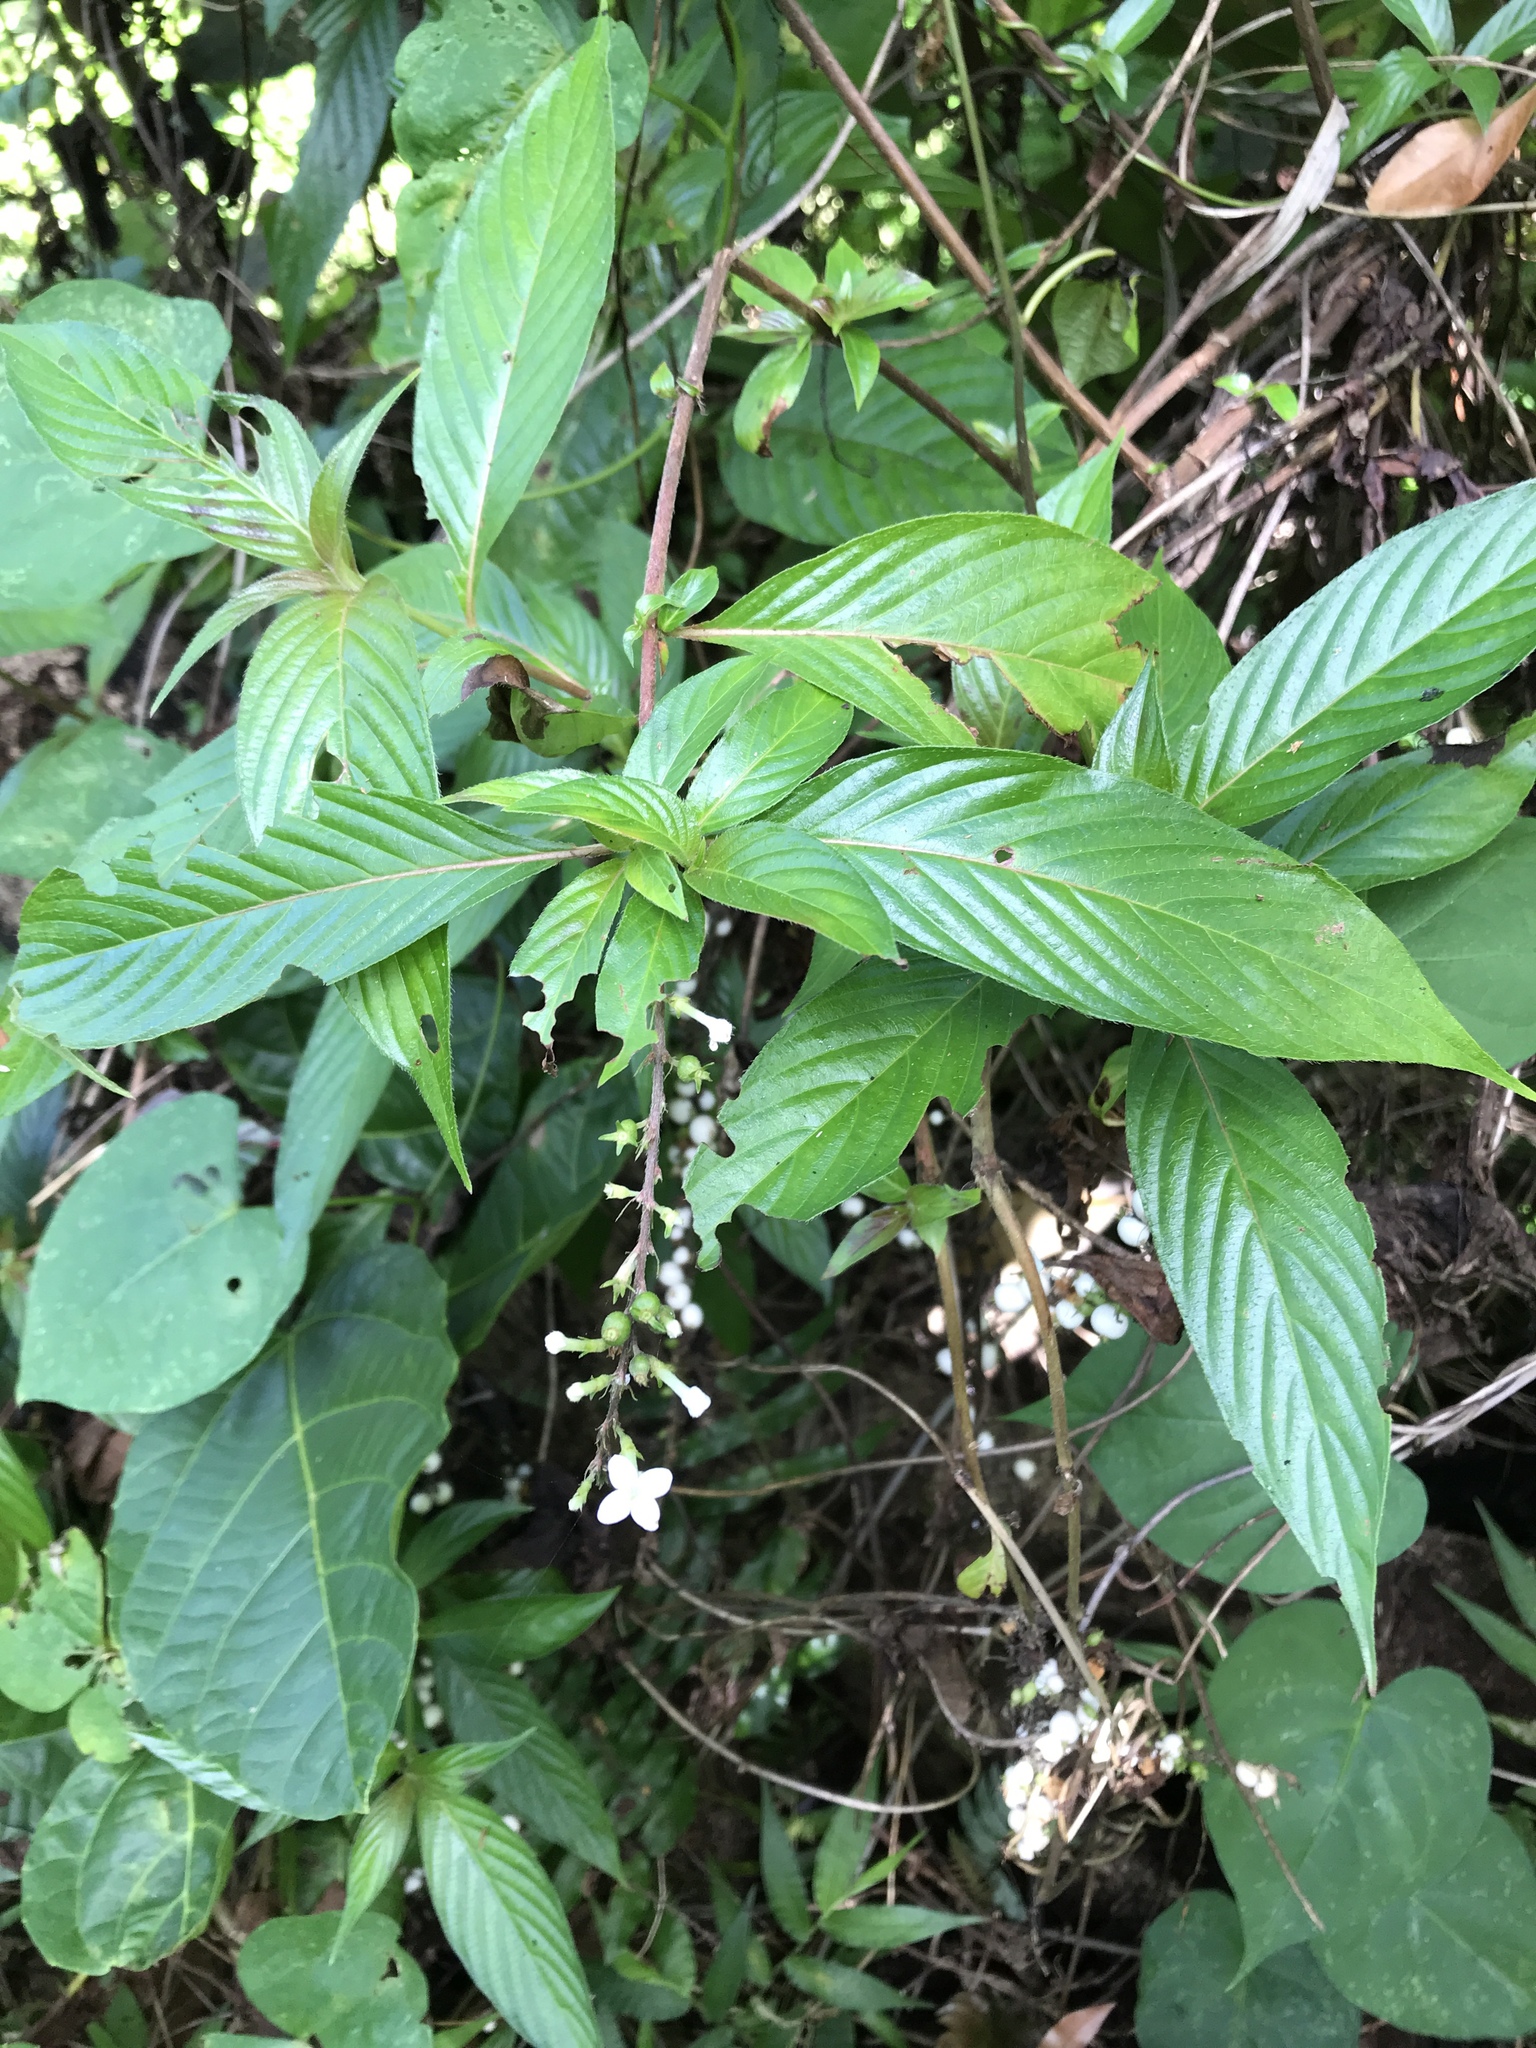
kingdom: Plantae
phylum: Tracheophyta
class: Magnoliopsida
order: Gentianales
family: Rubiaceae
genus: Chiococca
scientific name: Chiococca alba
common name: Snowberry
